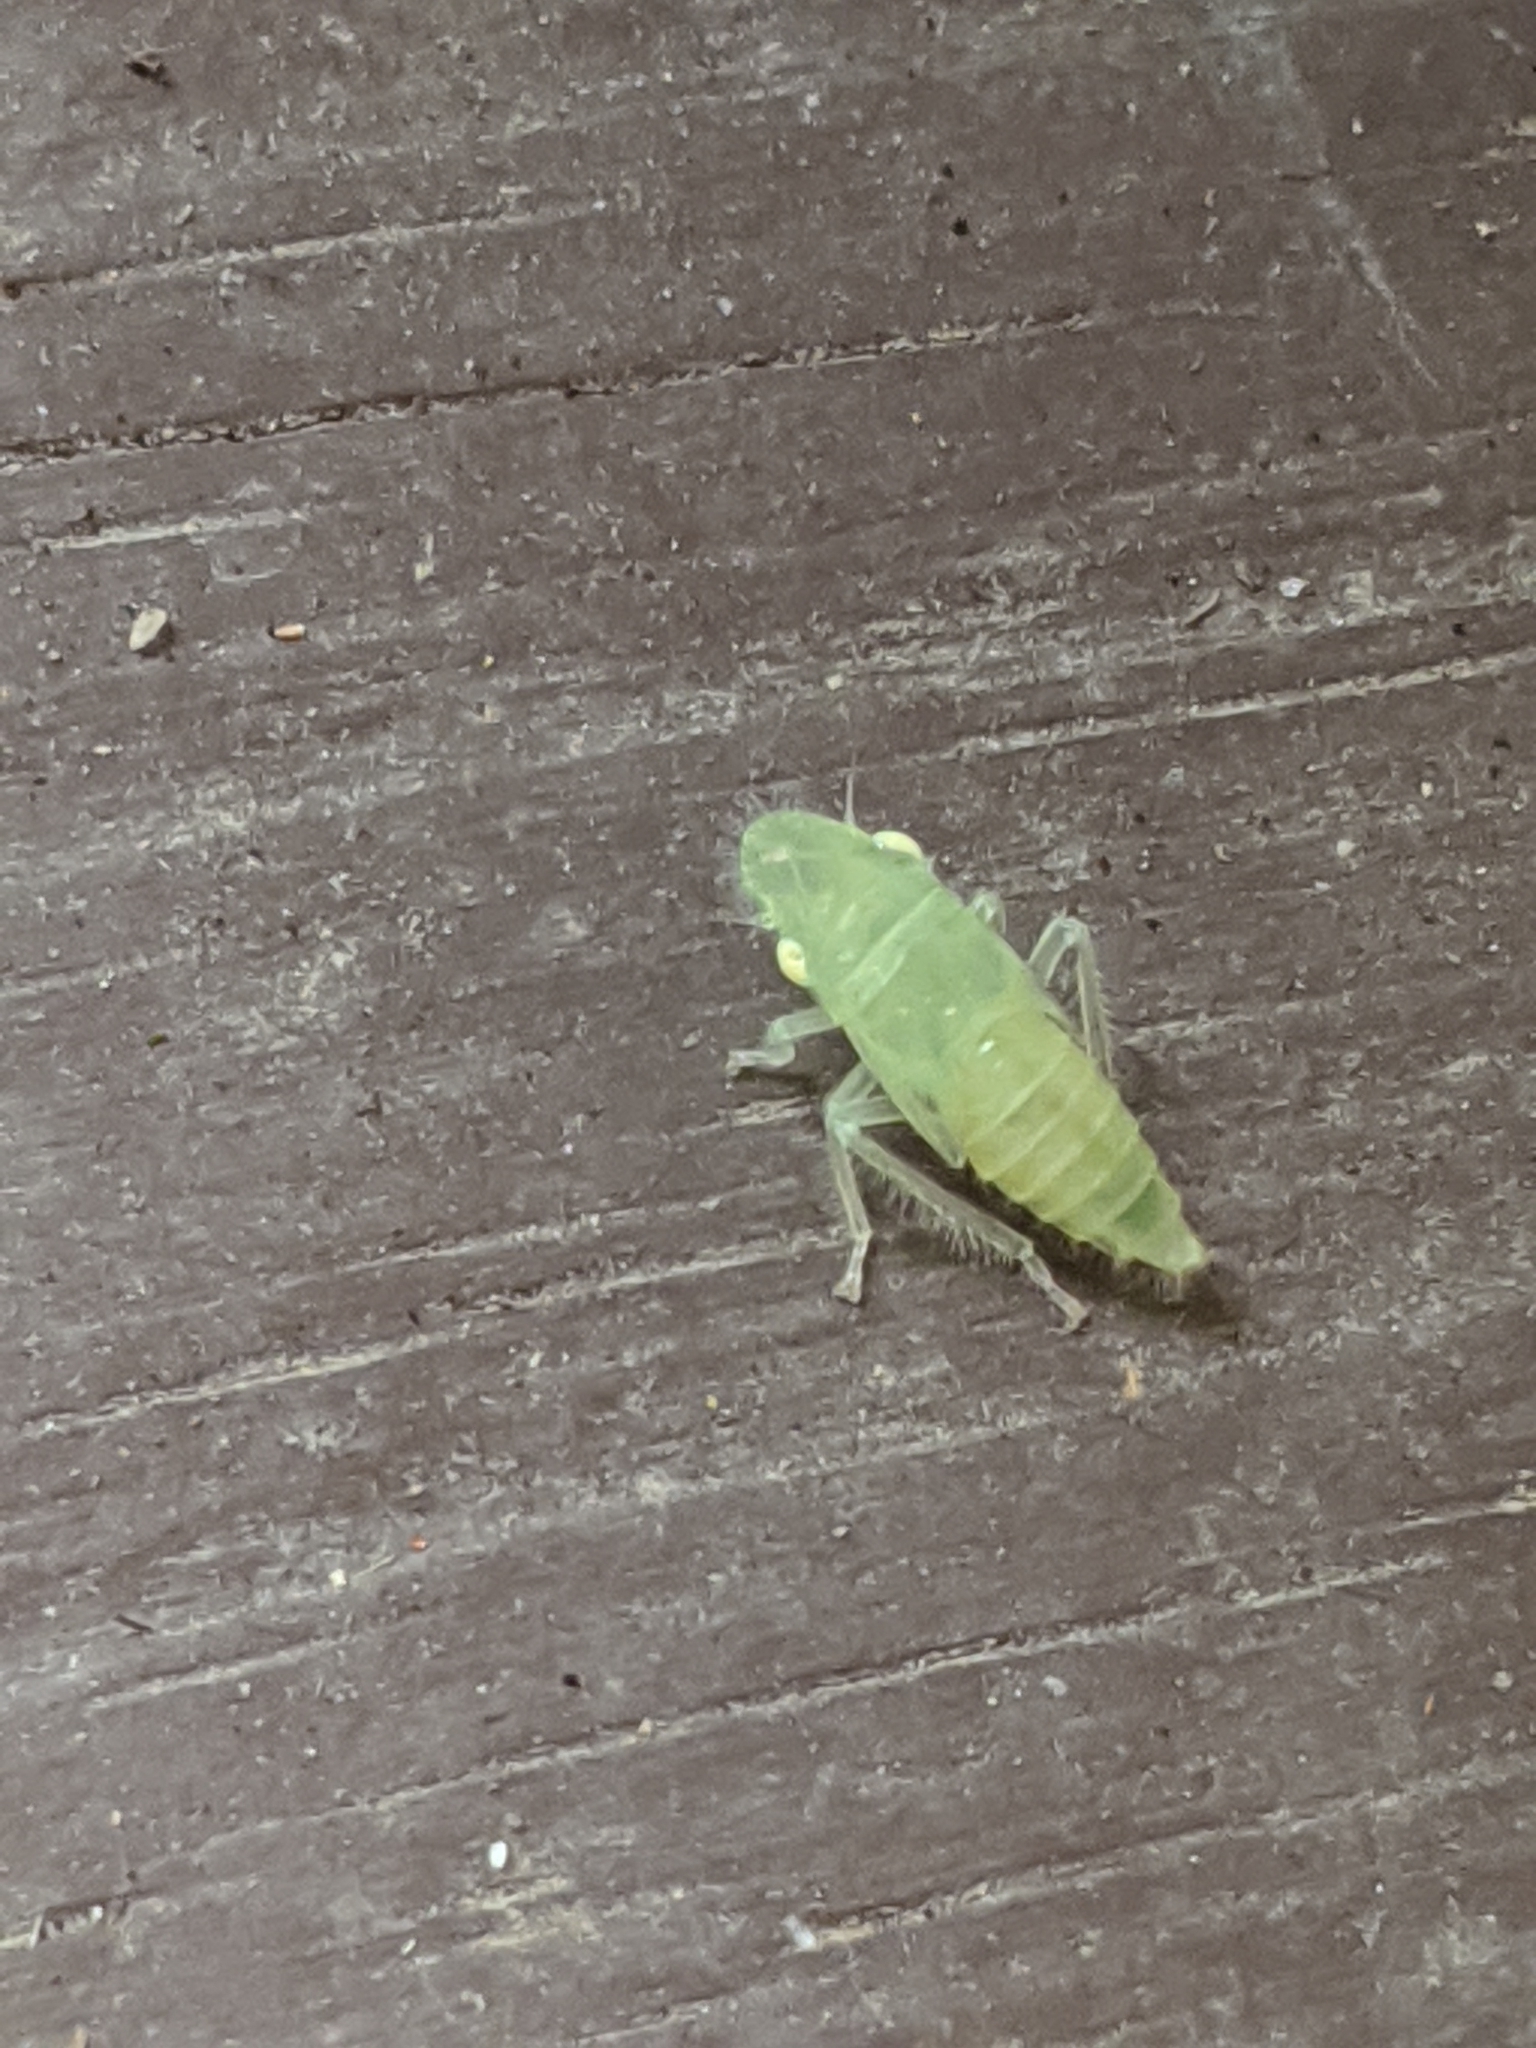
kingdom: Animalia
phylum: Arthropoda
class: Insecta
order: Hemiptera
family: Cicadellidae
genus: Paraulacizes
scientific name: Paraulacizes irrorata
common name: Speckled sharpshooter
